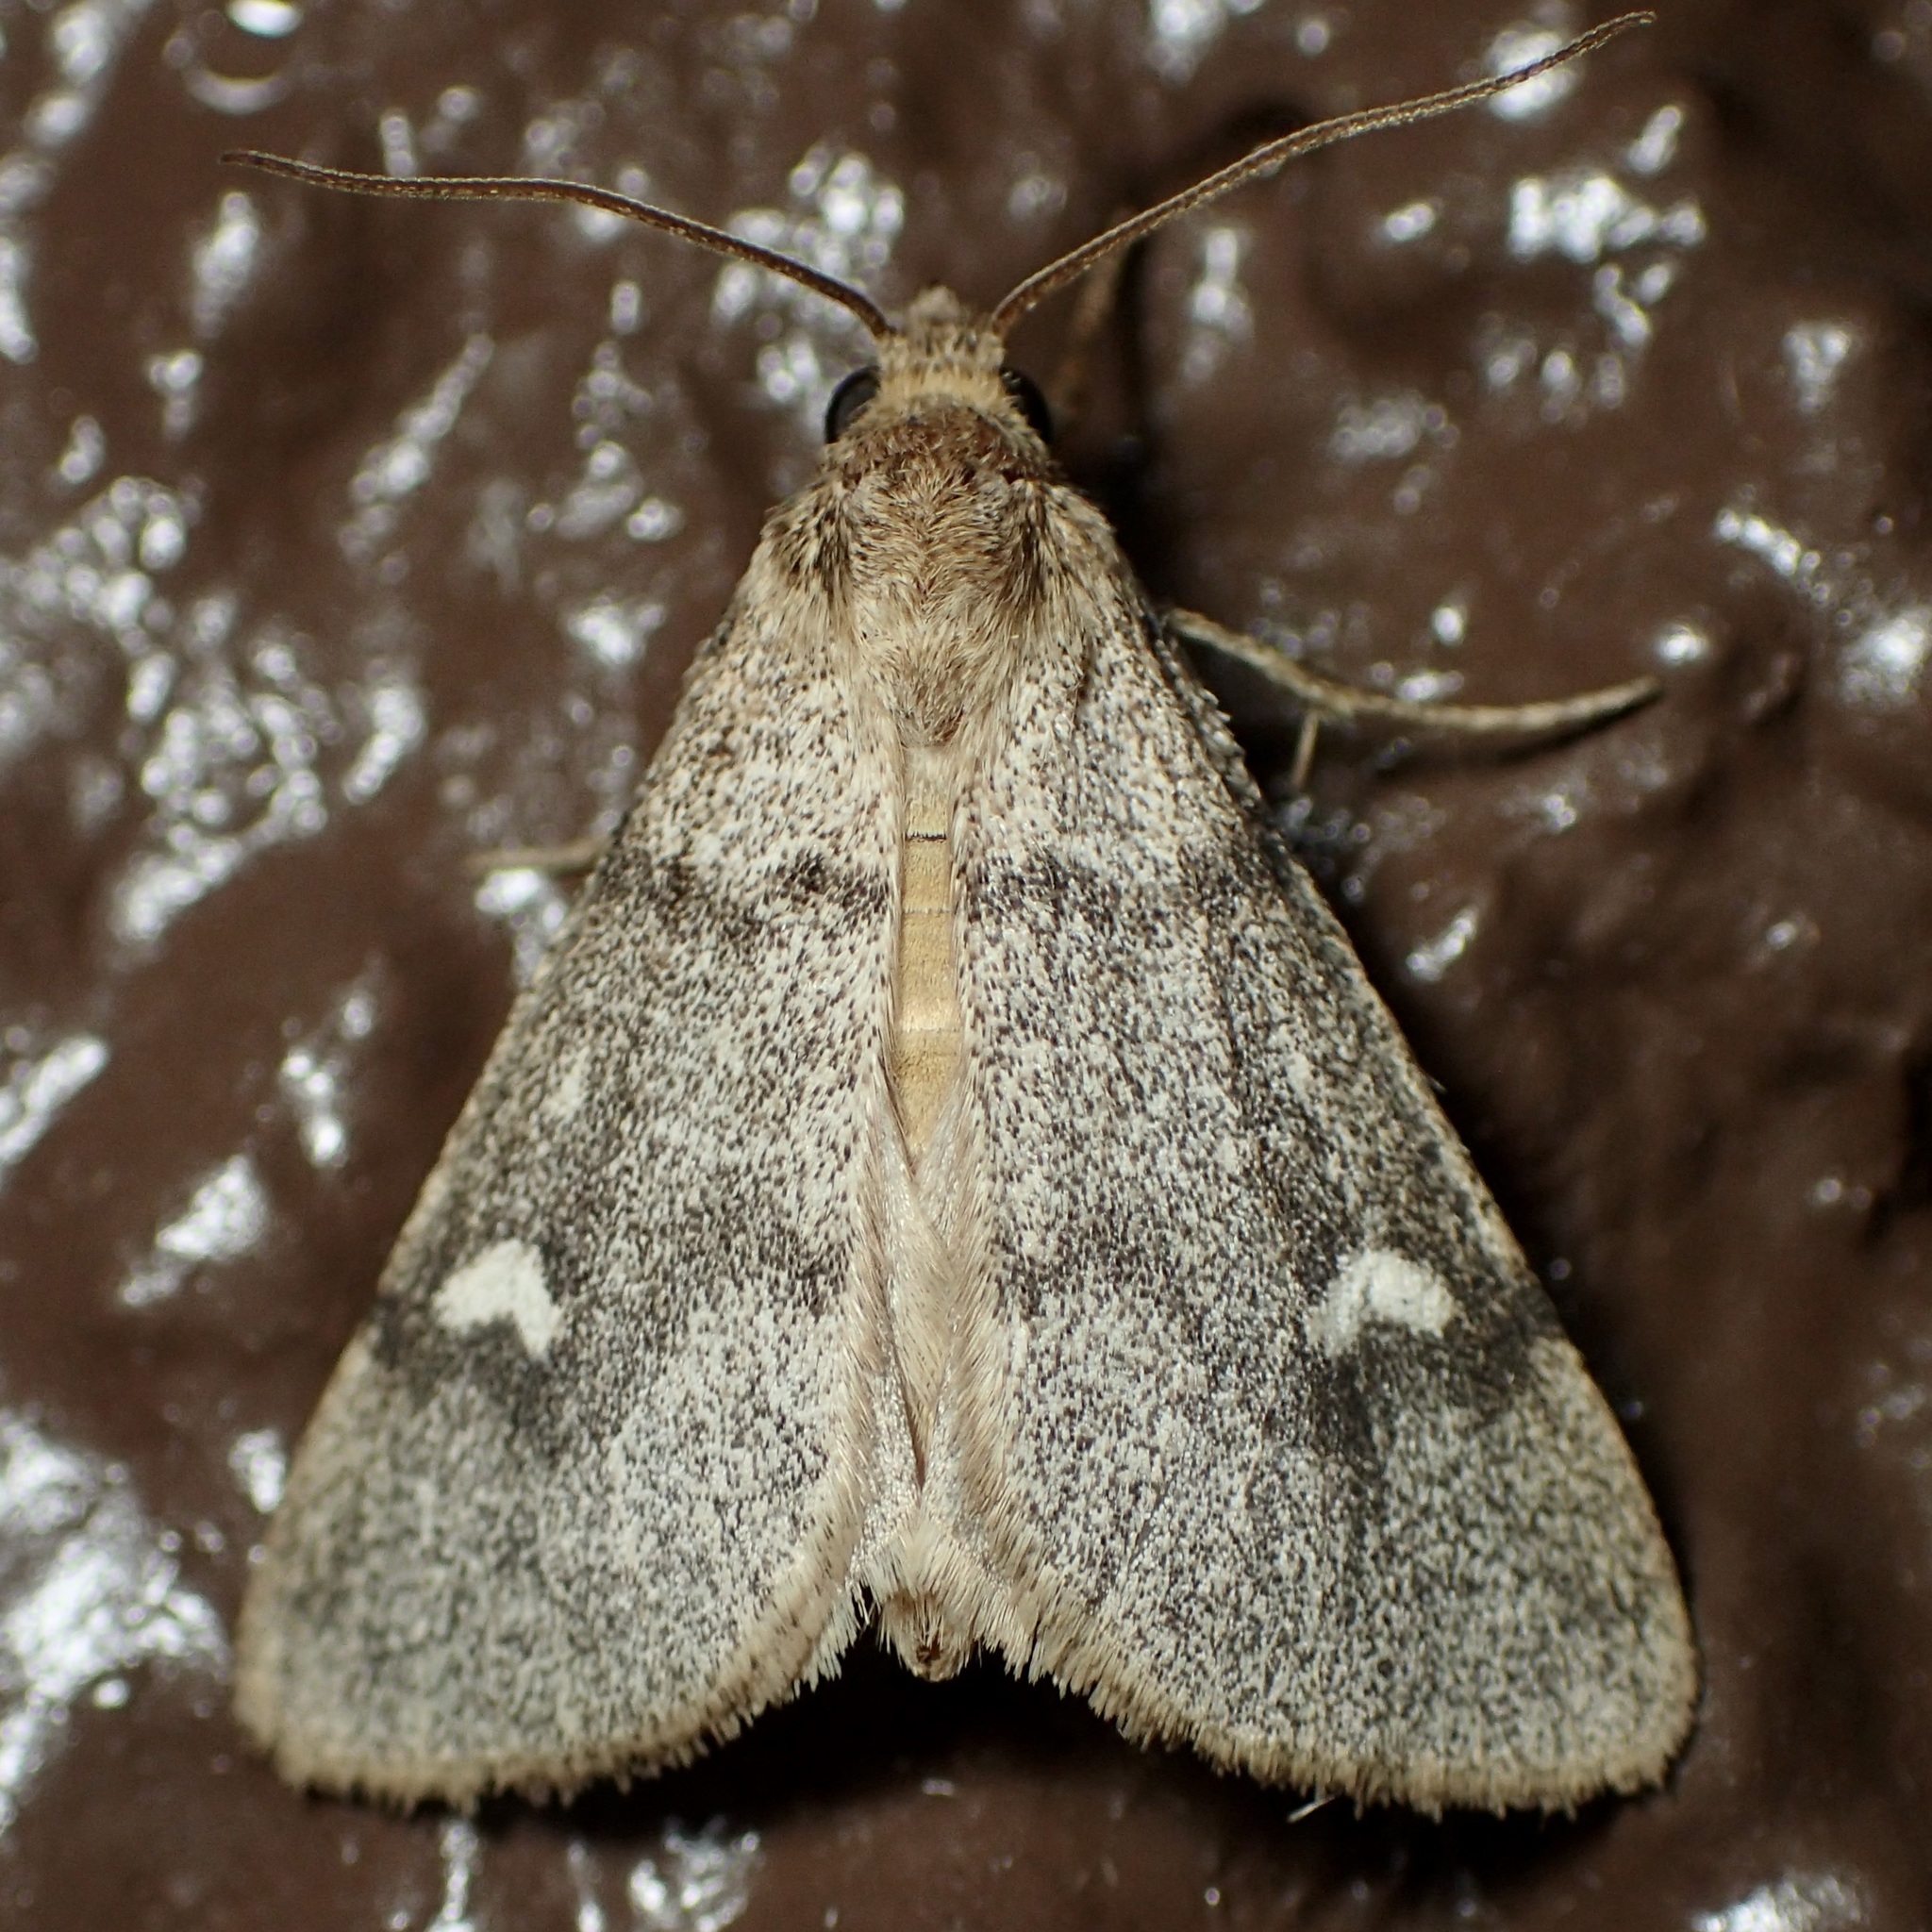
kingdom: Animalia
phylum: Arthropoda
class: Insecta
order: Lepidoptera
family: Noctuidae
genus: Narthecophora
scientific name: Narthecophora pulverea
